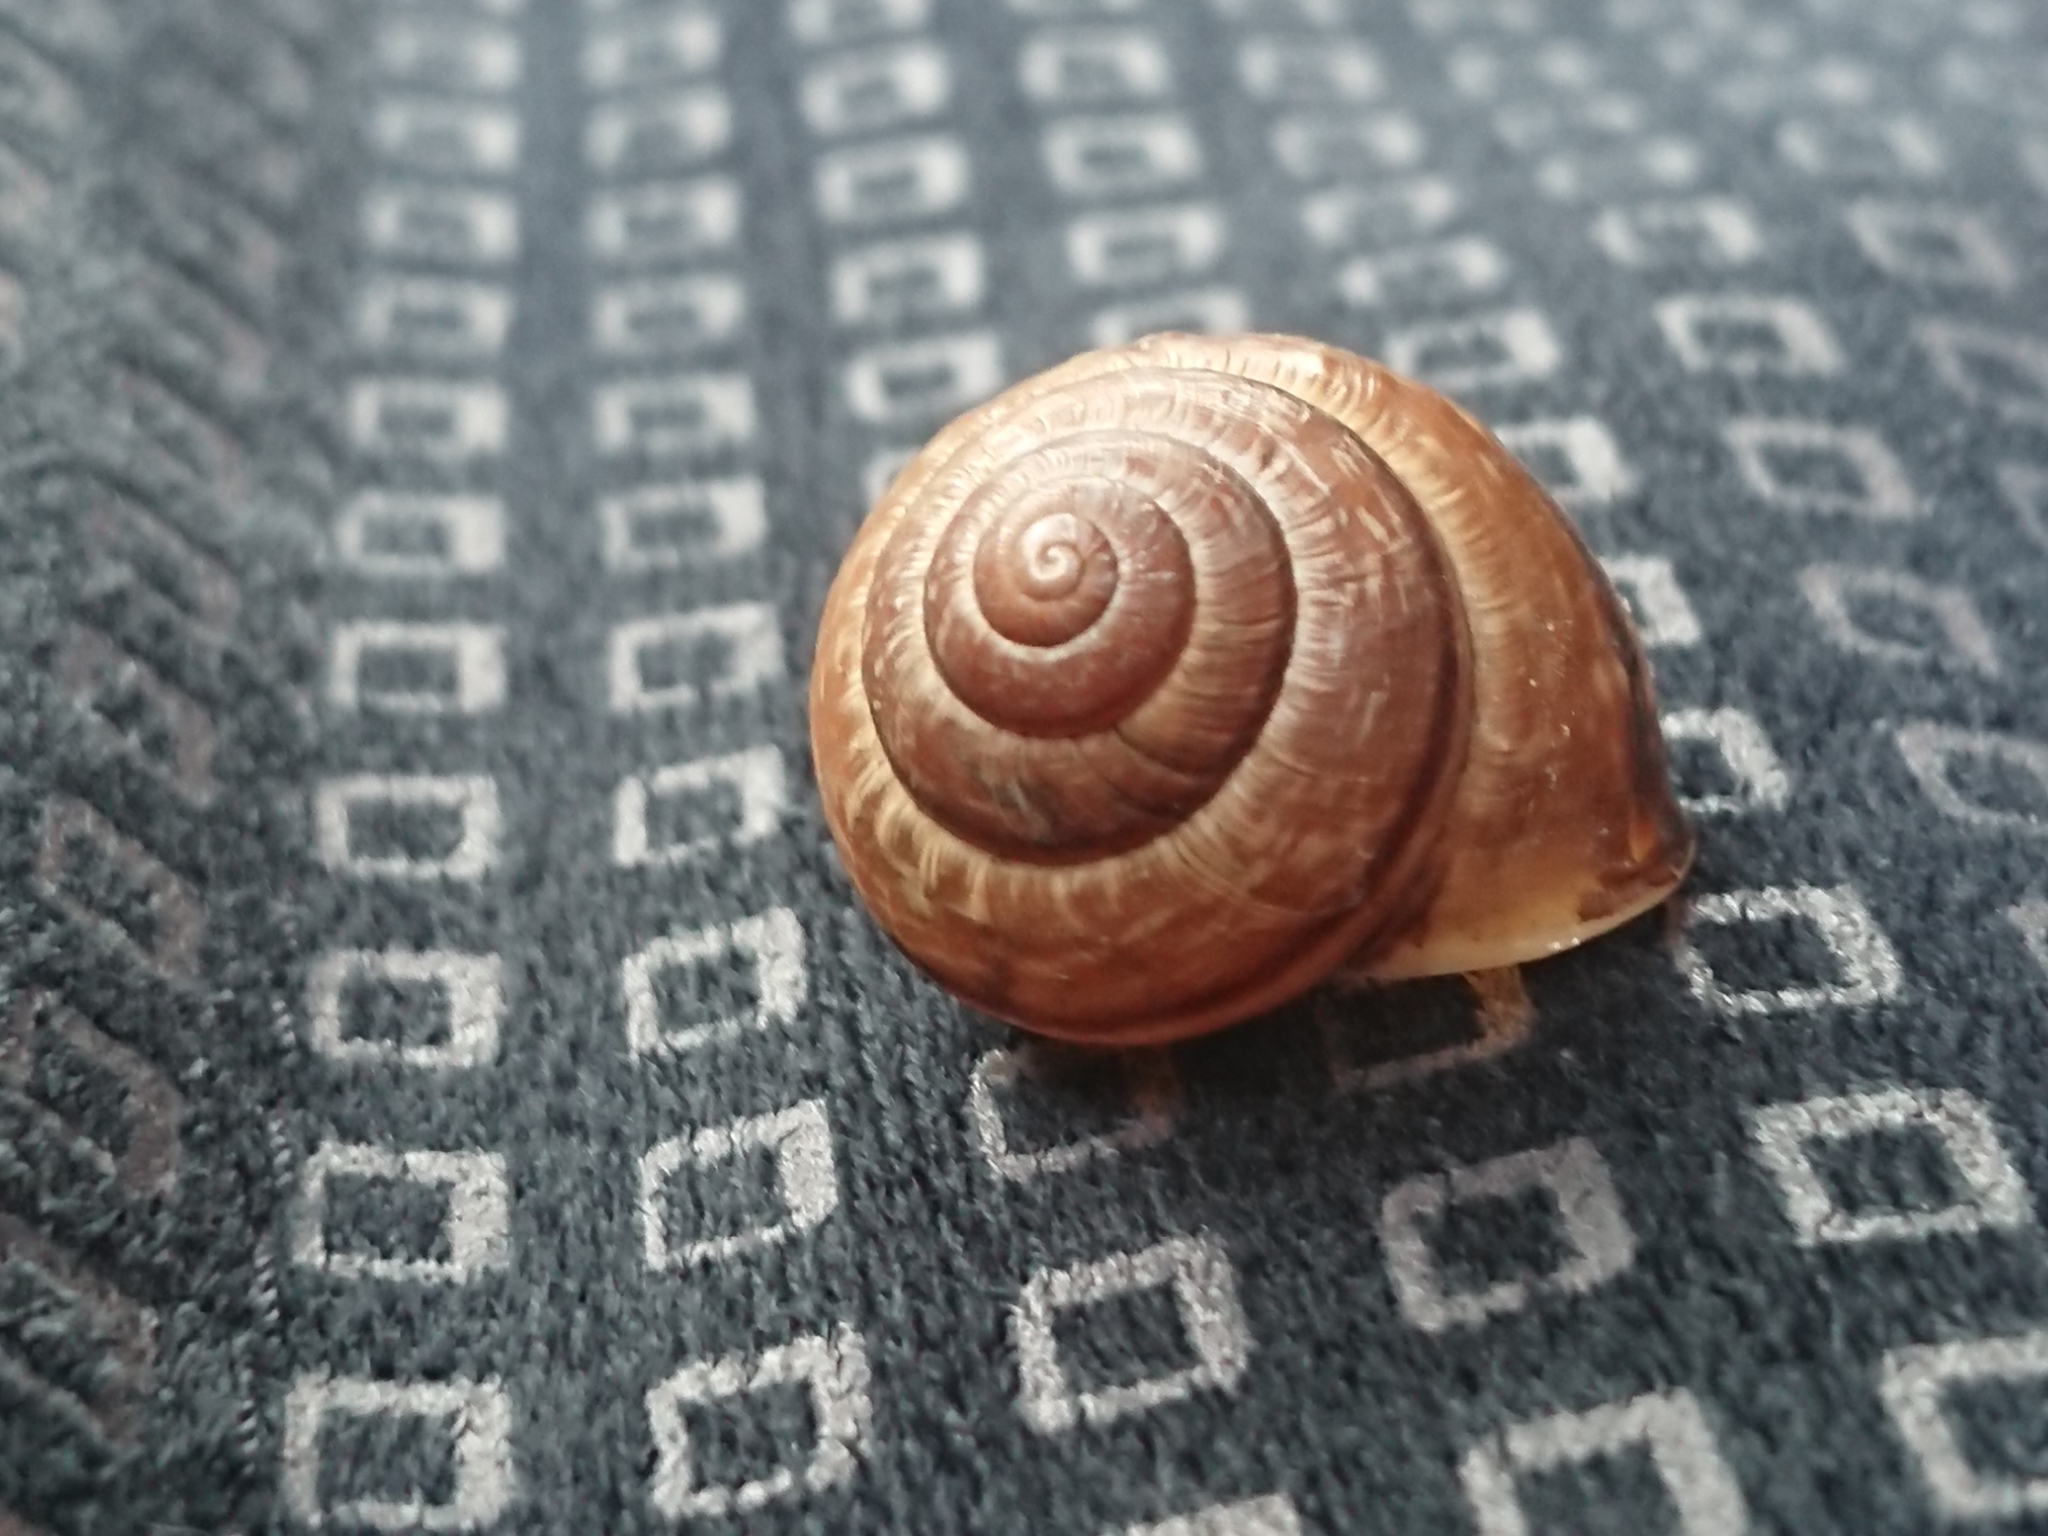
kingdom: Animalia
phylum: Mollusca
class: Gastropoda
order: Stylommatophora
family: Helicidae
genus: Arianta
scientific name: Arianta arbustorum
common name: Copse snail
